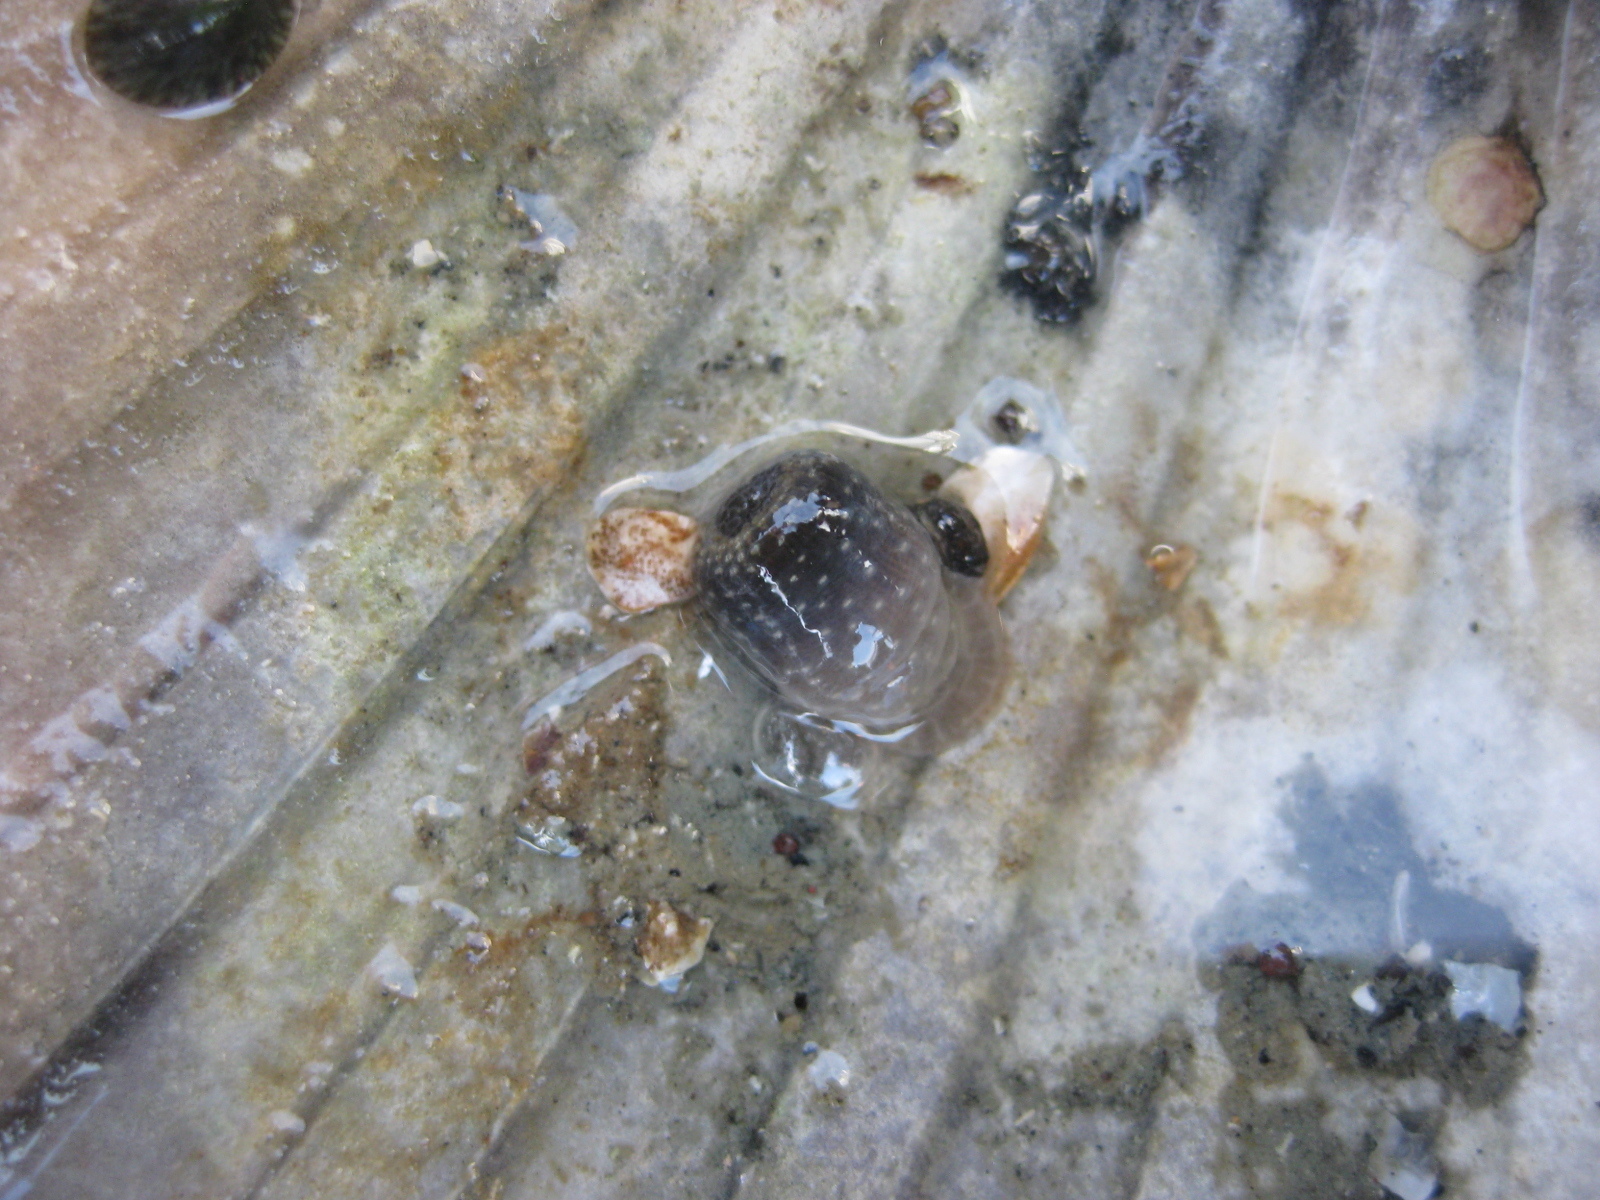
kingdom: Animalia
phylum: Cnidaria
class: Anthozoa
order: Actiniaria
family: Actiniidae
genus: Anthopleura
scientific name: Anthopleura hermaphroditica
